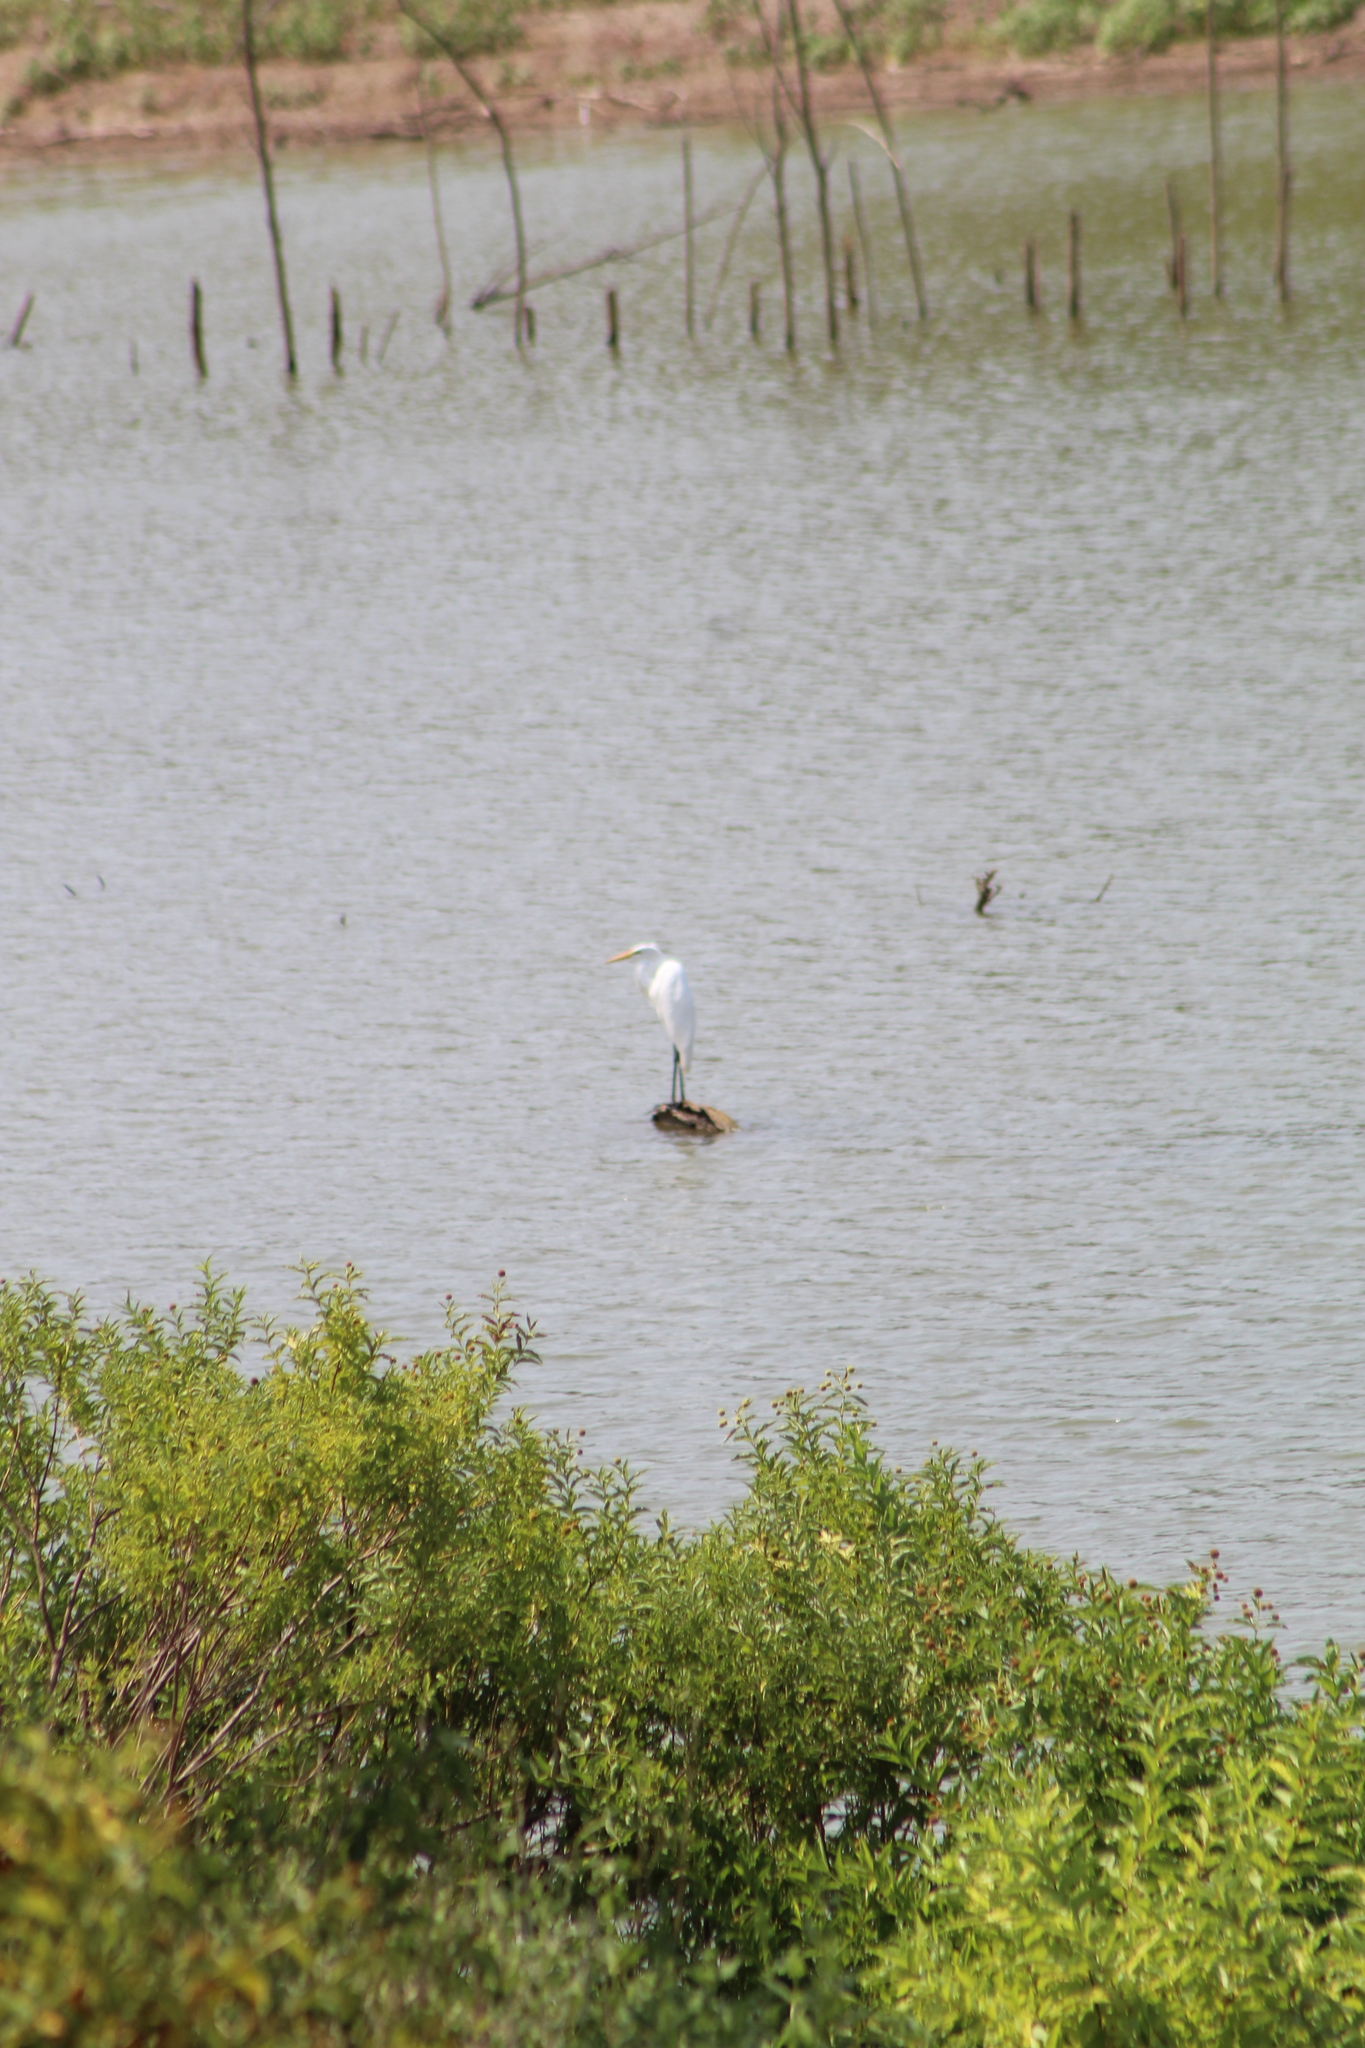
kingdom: Animalia
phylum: Chordata
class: Aves
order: Pelecaniformes
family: Ardeidae
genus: Ardea
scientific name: Ardea alba
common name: Great egret
